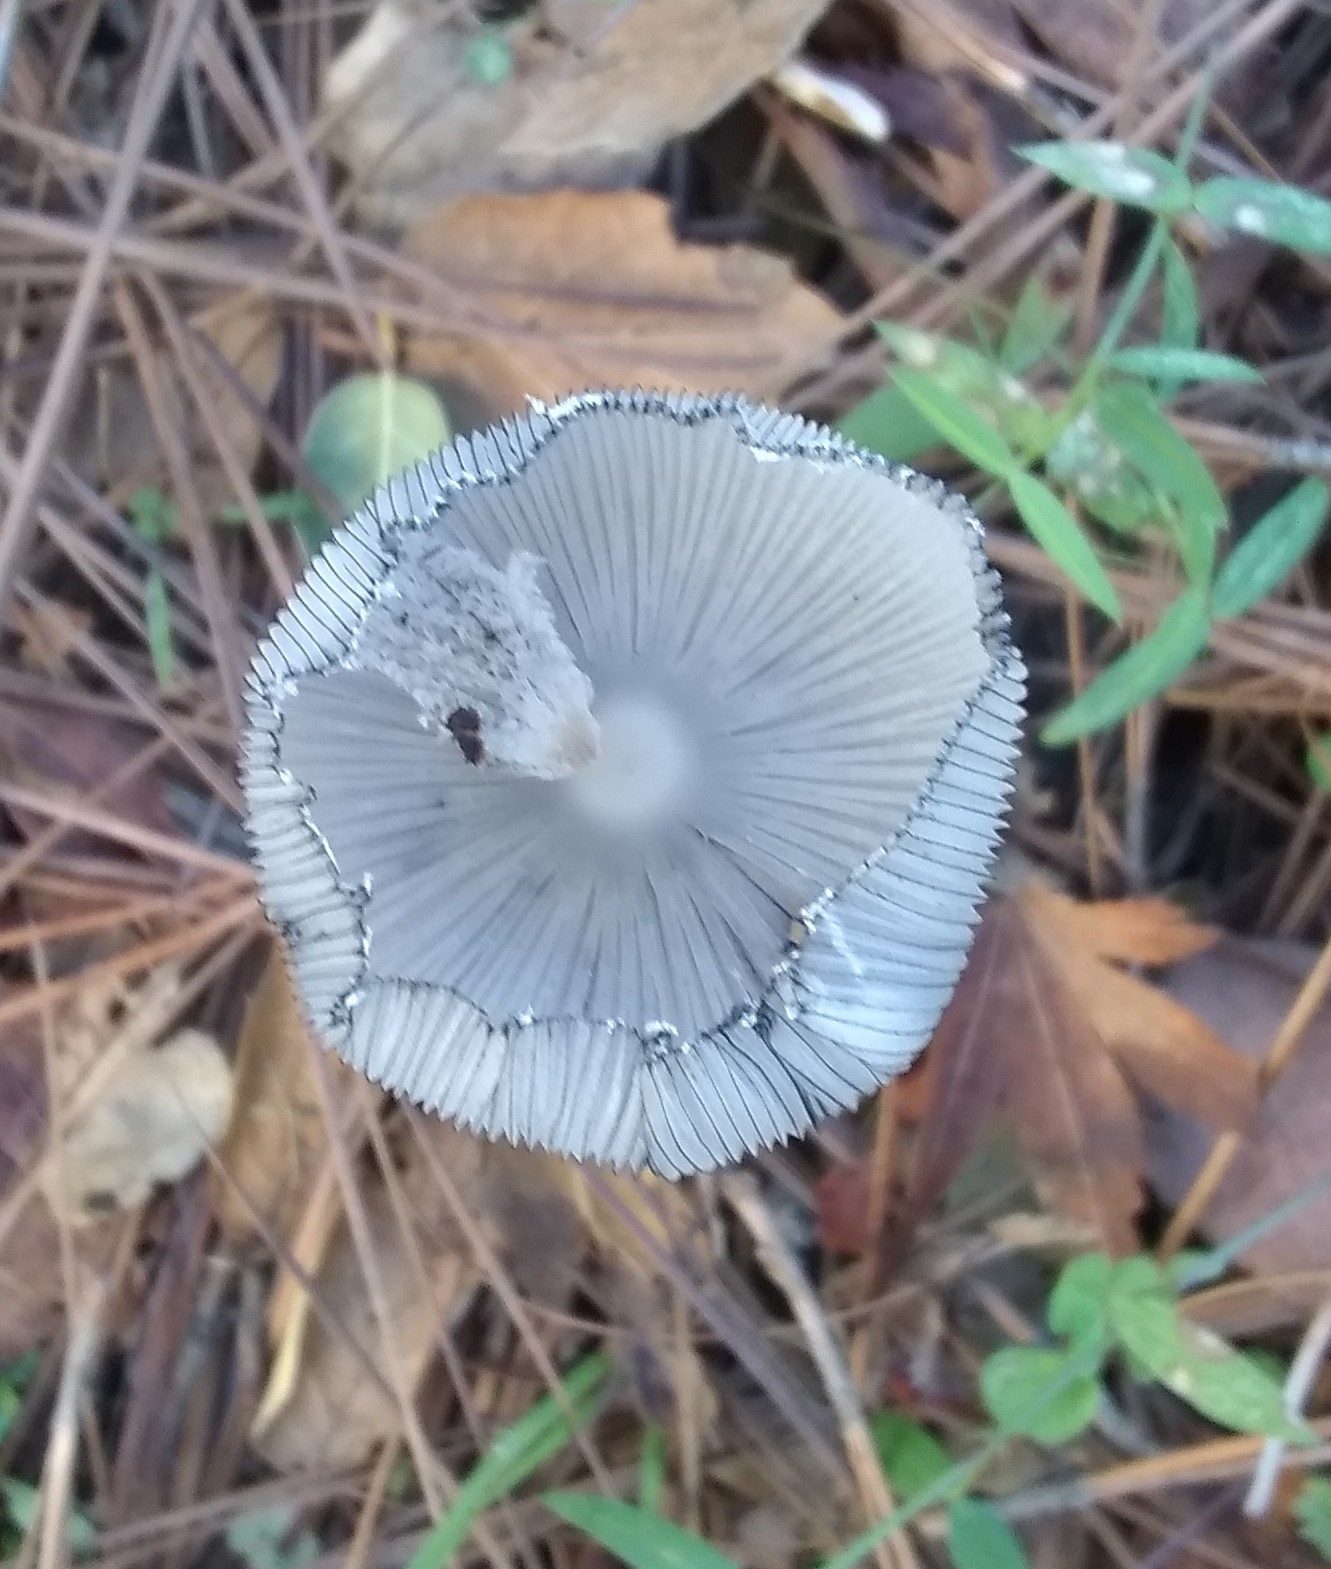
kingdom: Fungi
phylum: Basidiomycota
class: Agaricomycetes
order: Agaricales
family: Psathyrellaceae
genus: Coprinopsis
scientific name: Coprinopsis lagopus
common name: Hare'sfoot inkcap
